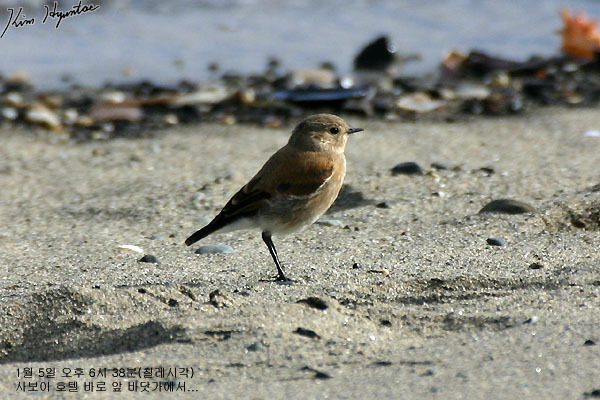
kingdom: Animalia
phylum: Chordata
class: Aves
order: Passeriformes
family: Tyrannidae
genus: Lessonia
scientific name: Lessonia rufa
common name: Austral negrito
